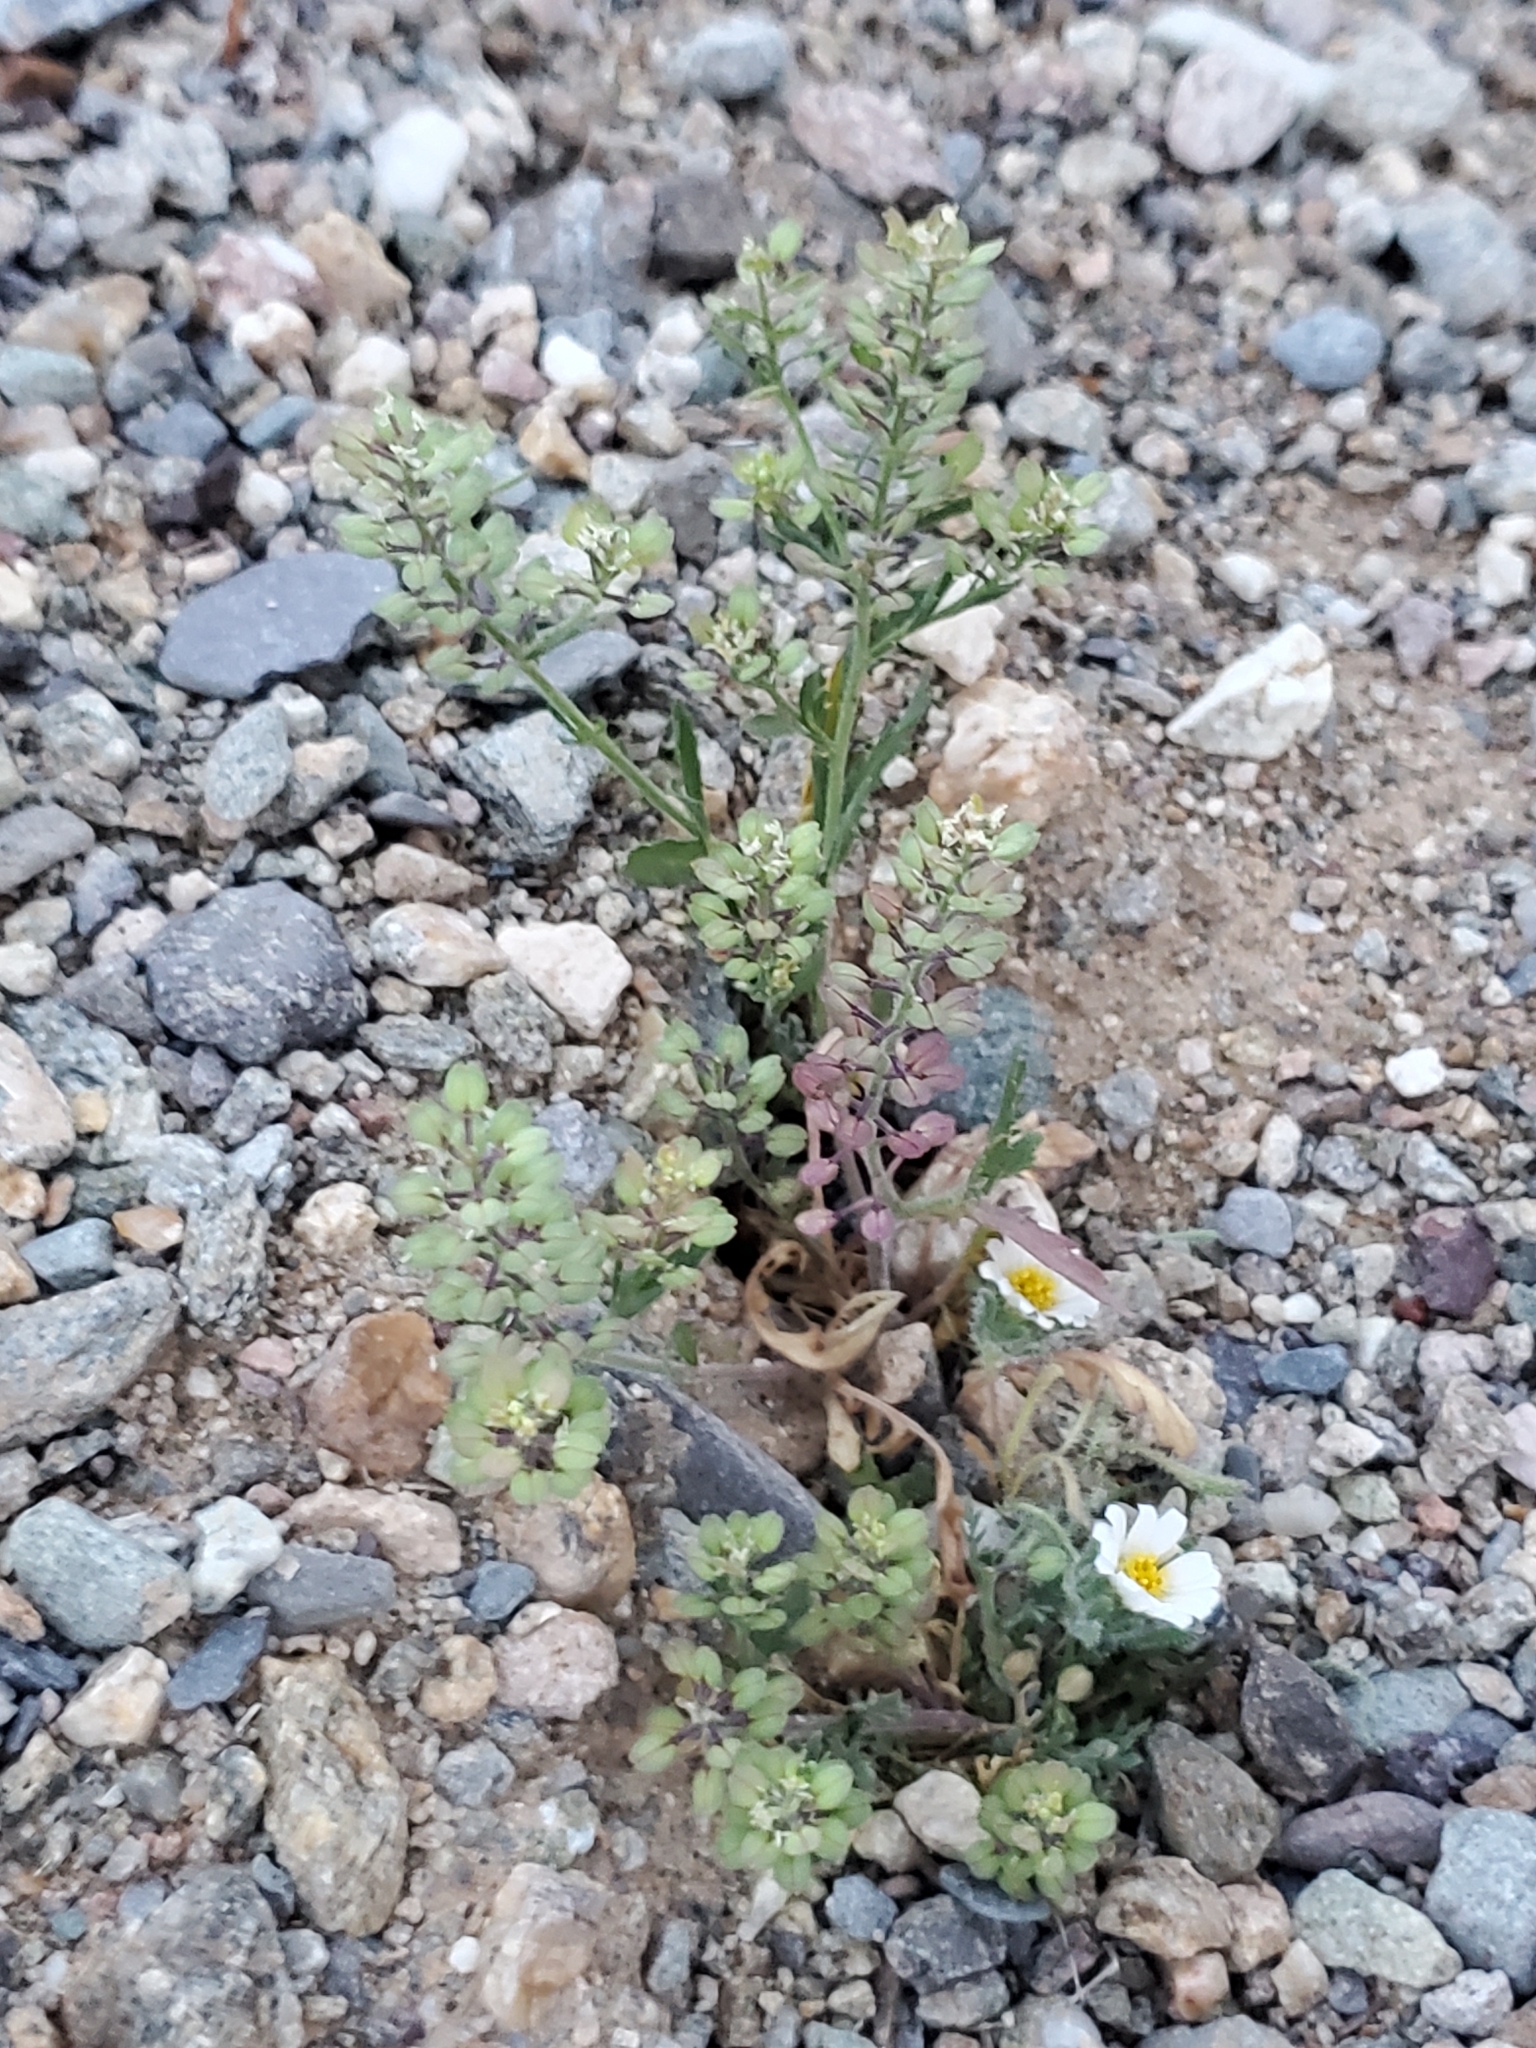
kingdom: Plantae
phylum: Tracheophyta
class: Magnoliopsida
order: Brassicales
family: Brassicaceae
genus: Lepidium
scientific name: Lepidium lasiocarpum
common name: Hairy-pod pepperwort
